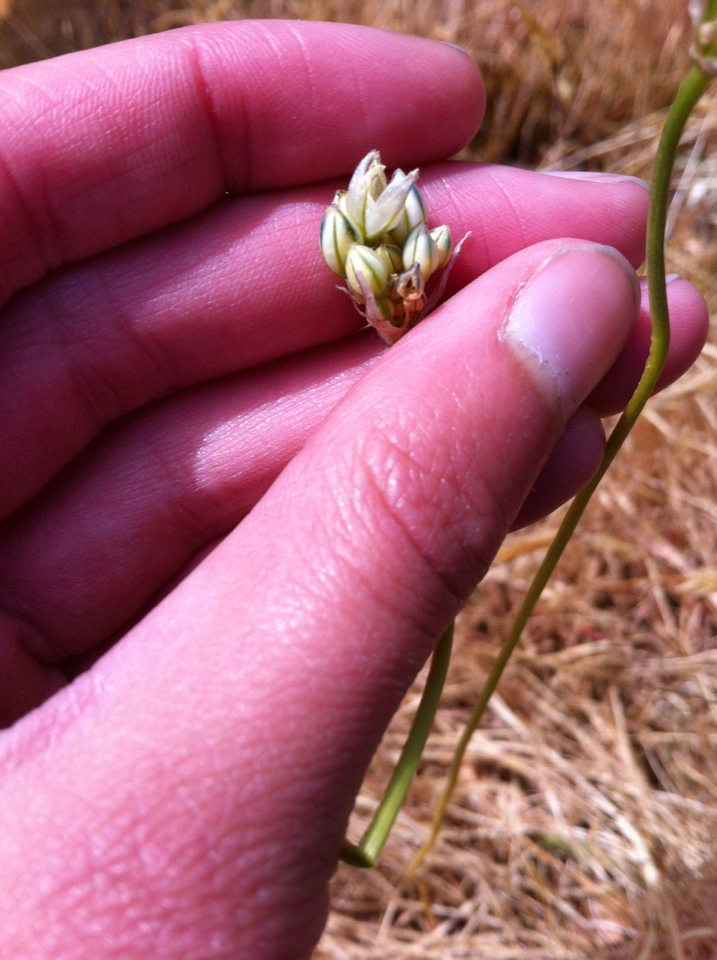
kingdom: Plantae
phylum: Tracheophyta
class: Liliopsida
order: Asparagales
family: Asparagaceae
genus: Triteleia
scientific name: Triteleia hyacinthina
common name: White brodiaea
